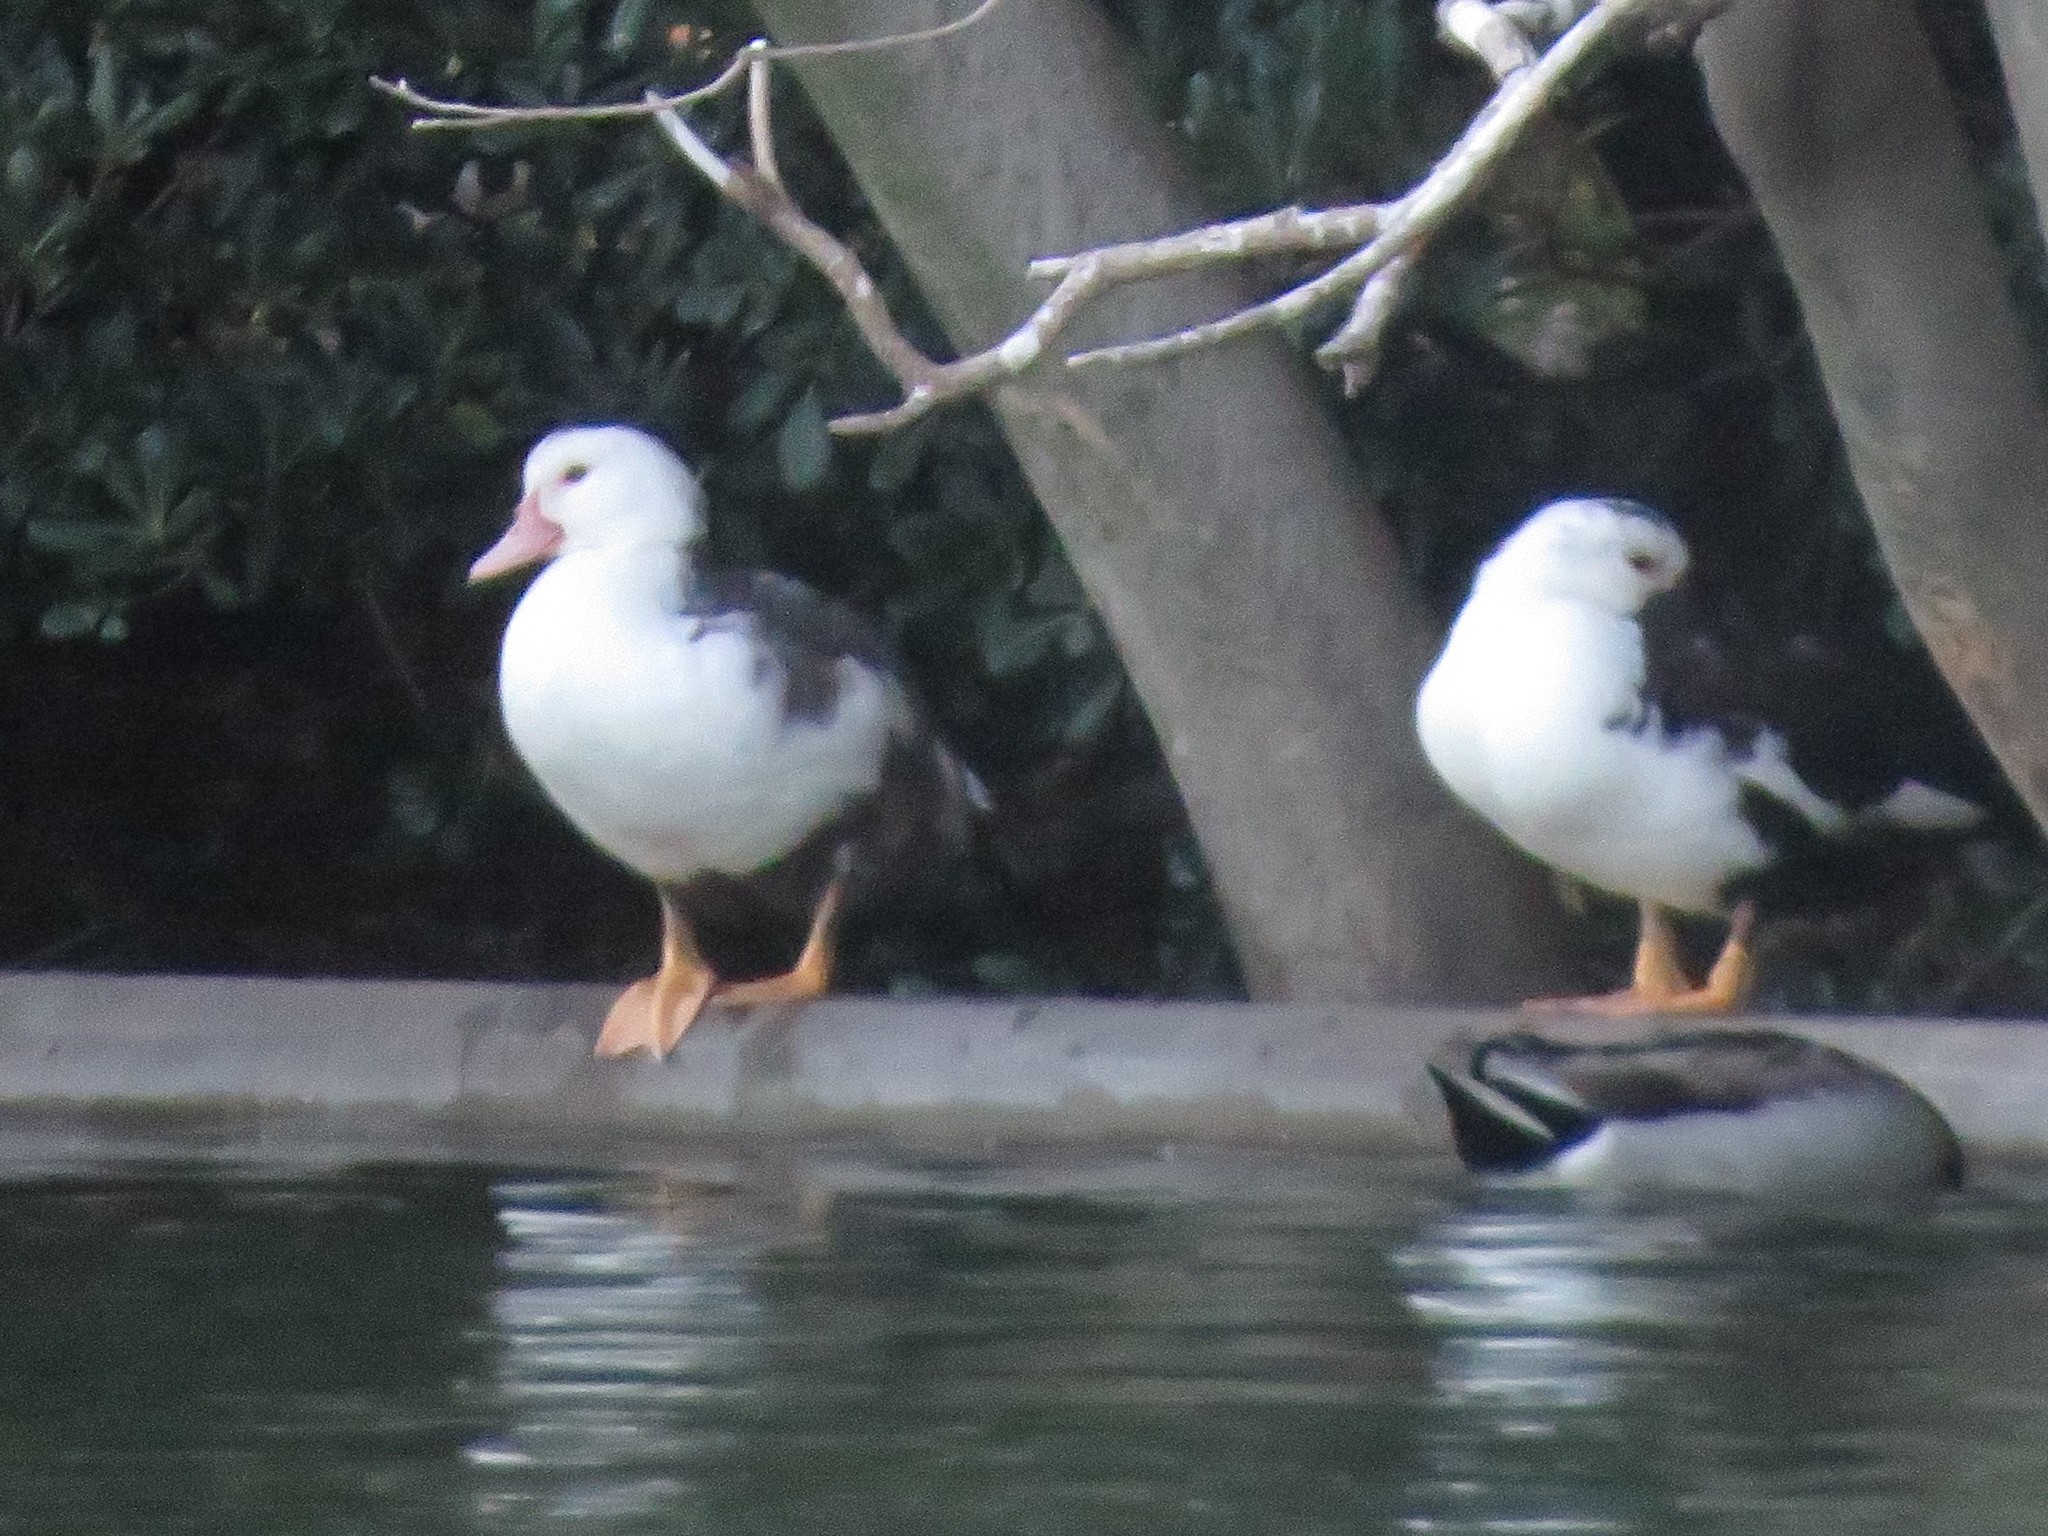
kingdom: Animalia
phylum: Chordata
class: Aves
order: Anseriformes
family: Anatidae
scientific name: Anatidae
